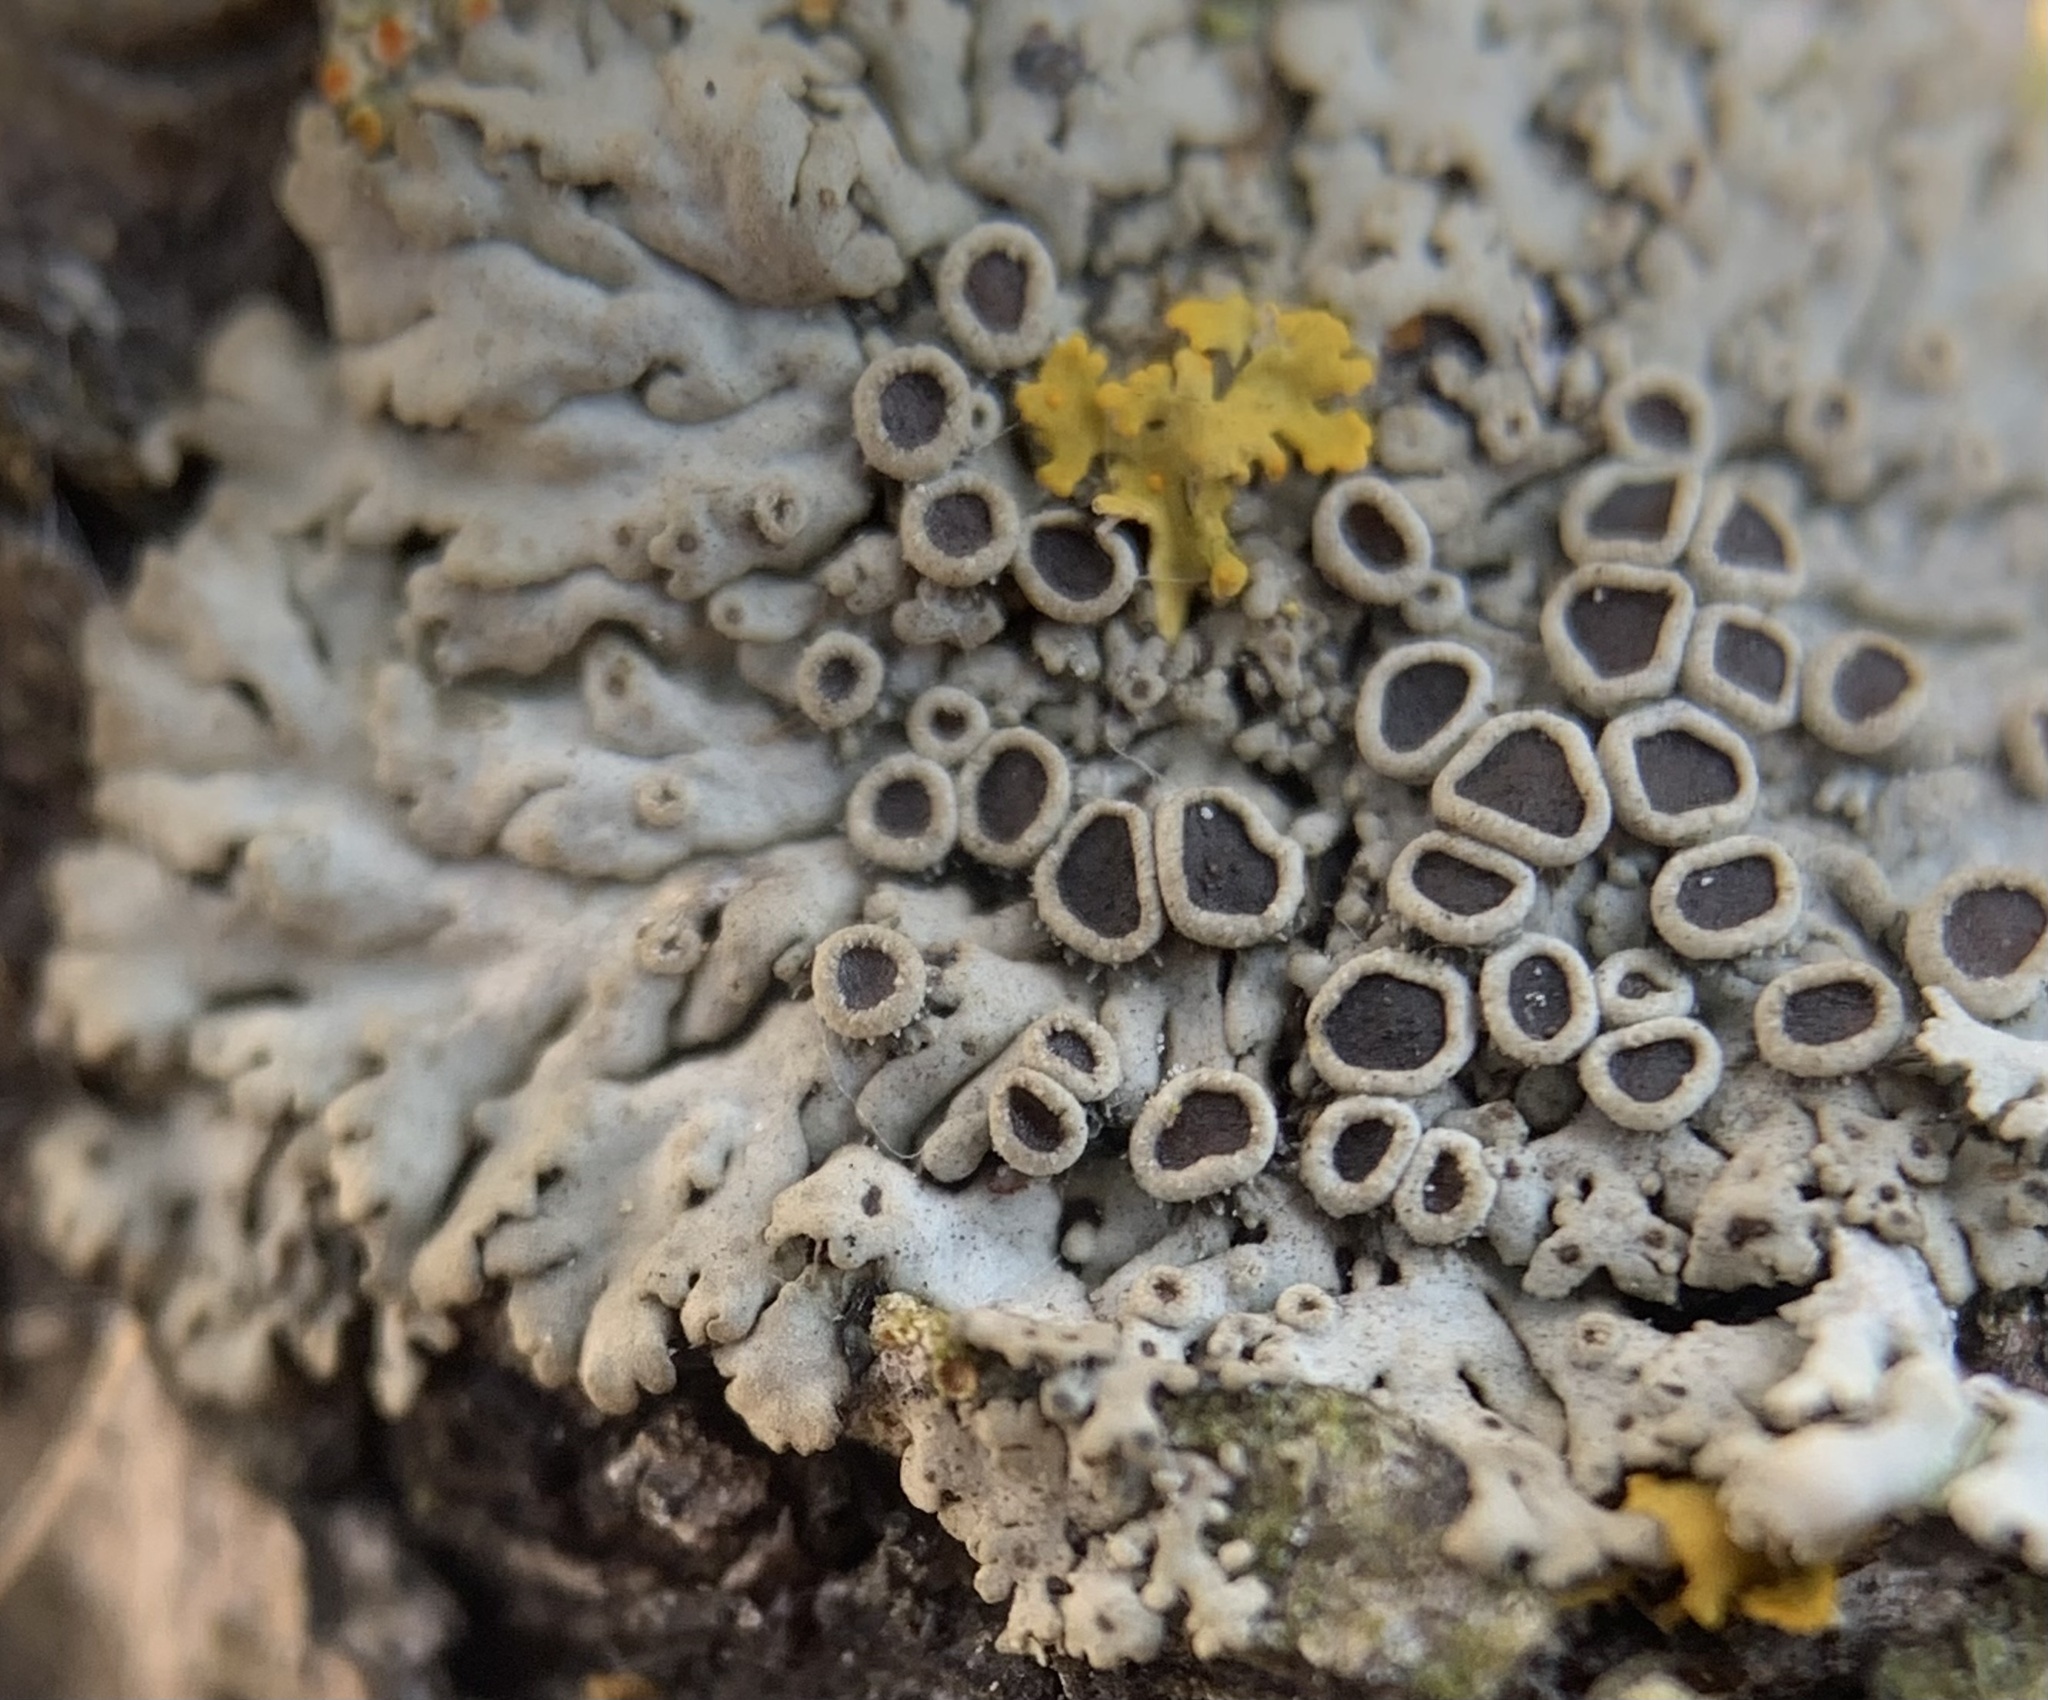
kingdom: Fungi
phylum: Ascomycota
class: Lecanoromycetes
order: Caliciales
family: Physciaceae
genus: Phaeophyscia
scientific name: Phaeophyscia hirtella
